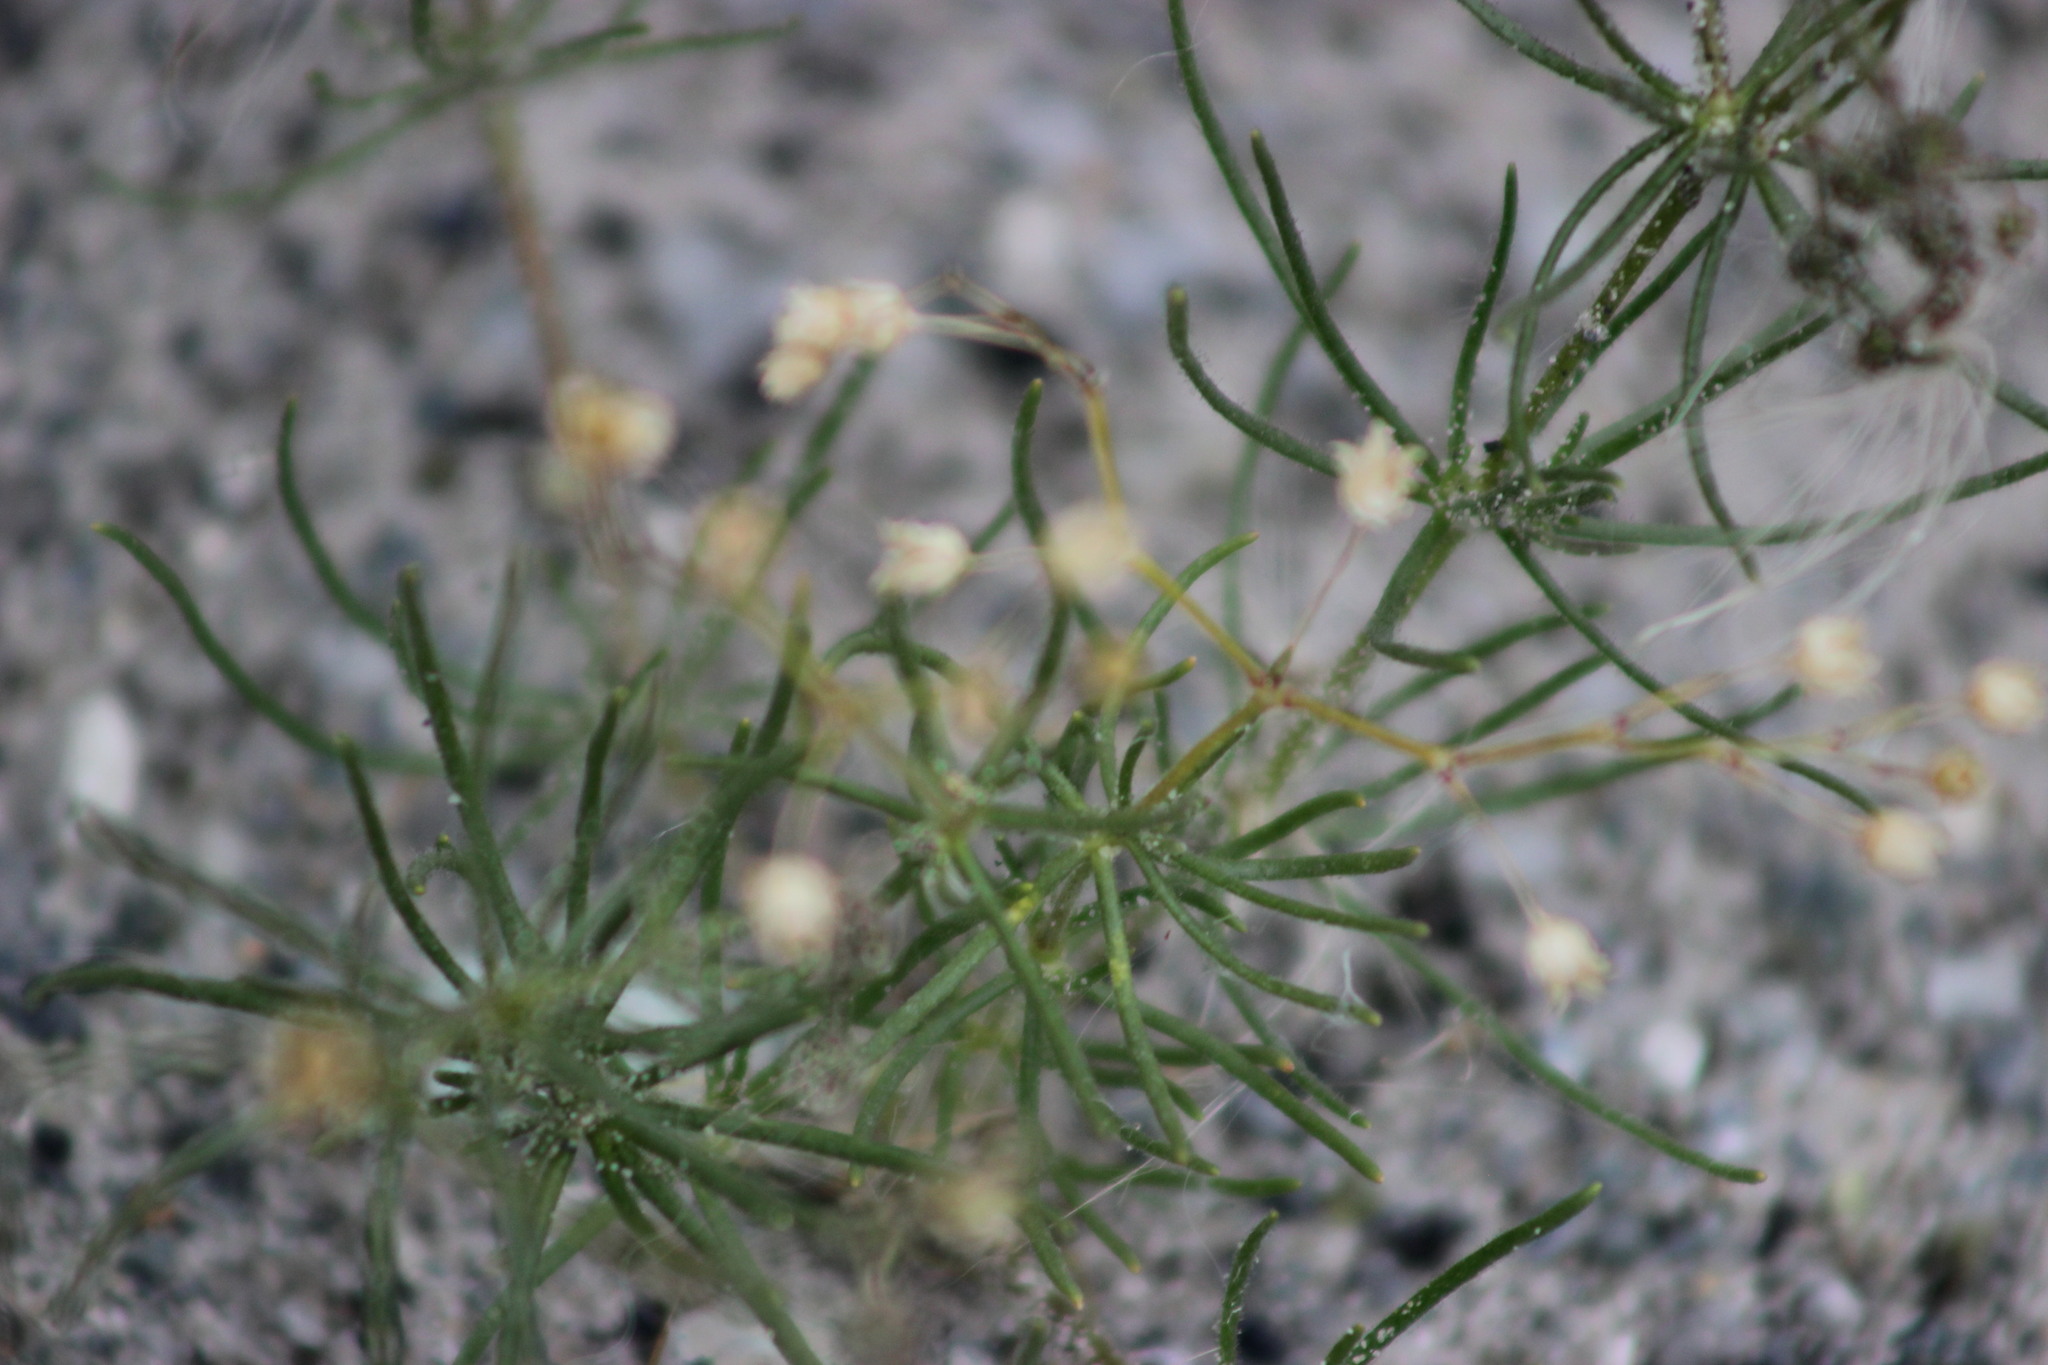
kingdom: Plantae
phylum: Tracheophyta
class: Magnoliopsida
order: Caryophyllales
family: Caryophyllaceae
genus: Spergula
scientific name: Spergula arvensis
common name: Corn spurrey
